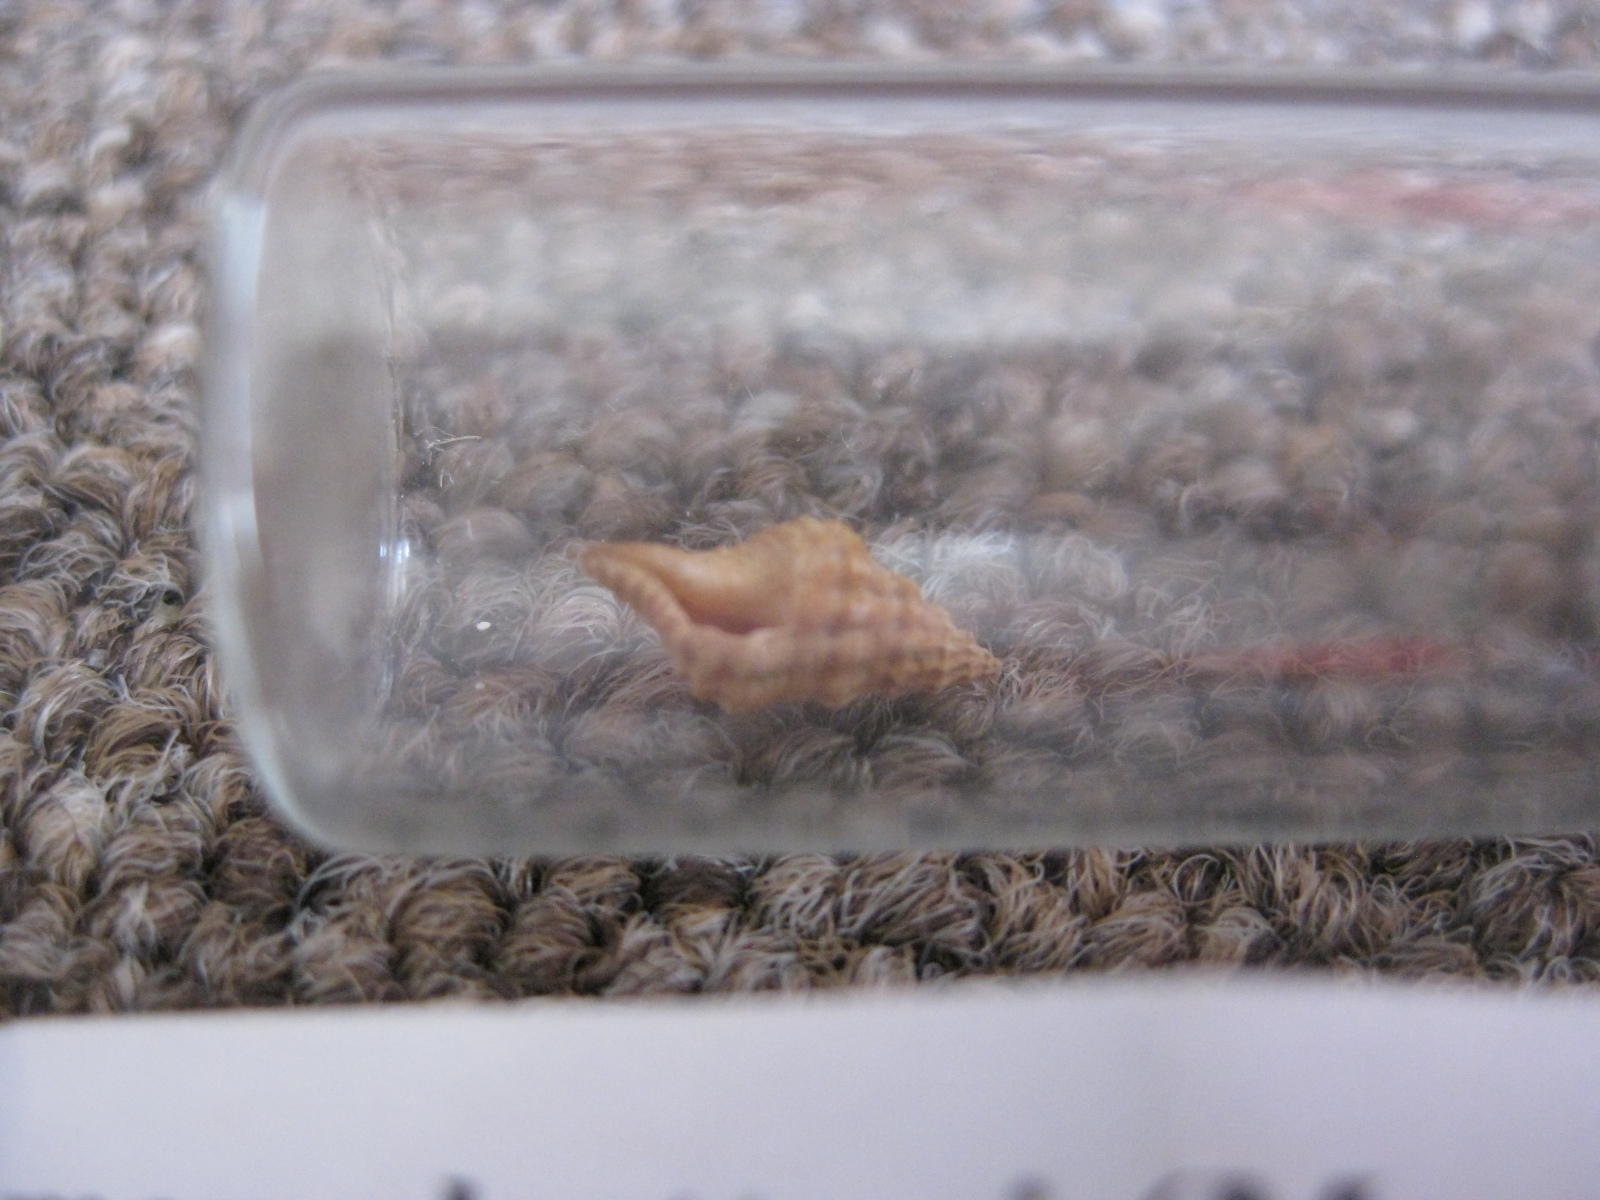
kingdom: Animalia
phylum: Mollusca
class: Gastropoda
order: Neogastropoda
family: Muricidae
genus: Lamellitrophon
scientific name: Lamellitrophon huttonii
